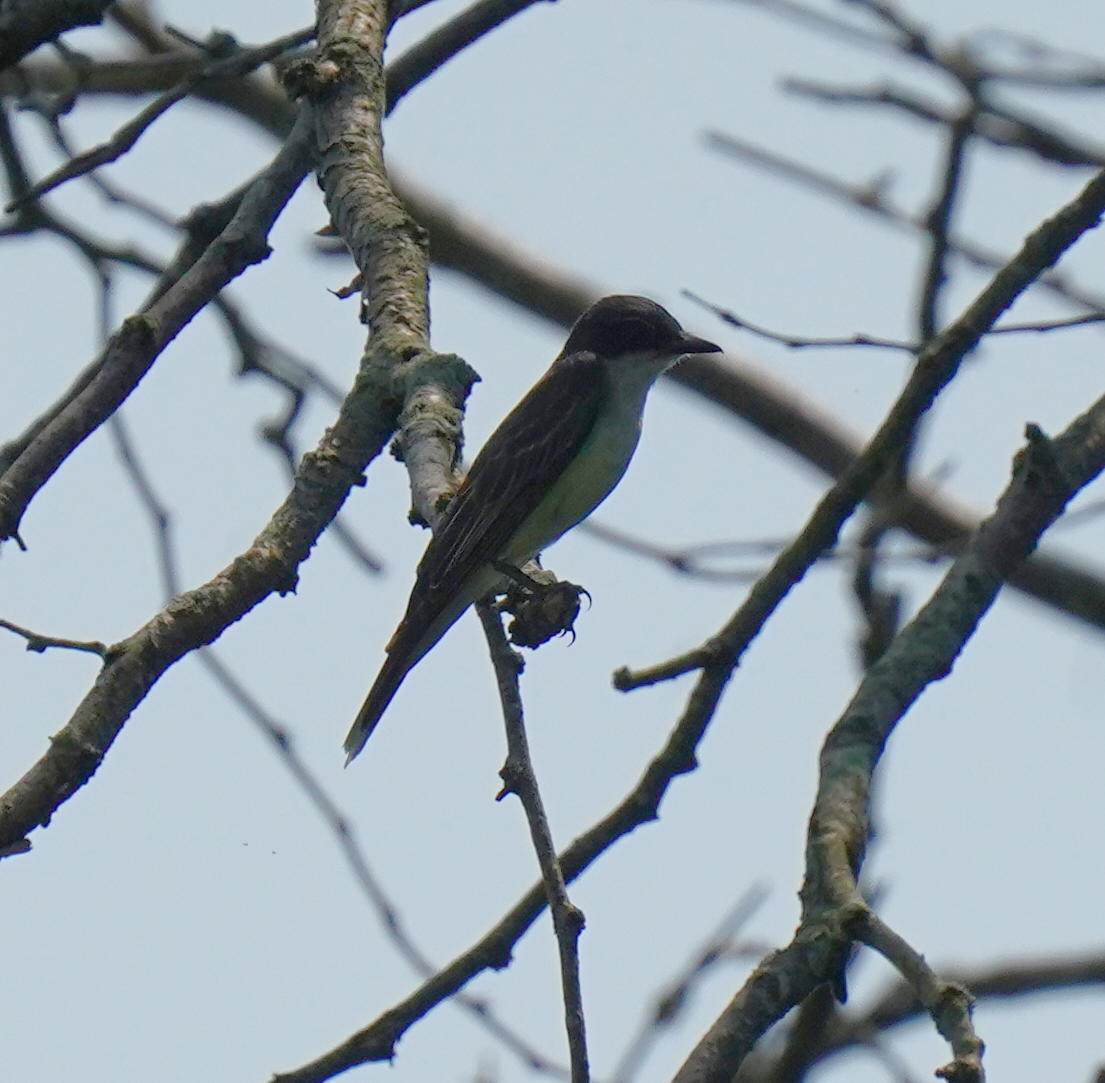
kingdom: Animalia
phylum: Chordata
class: Aves
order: Passeriformes
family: Tyrannidae
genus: Tyrannus
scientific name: Tyrannus tyrannus
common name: Eastern kingbird
